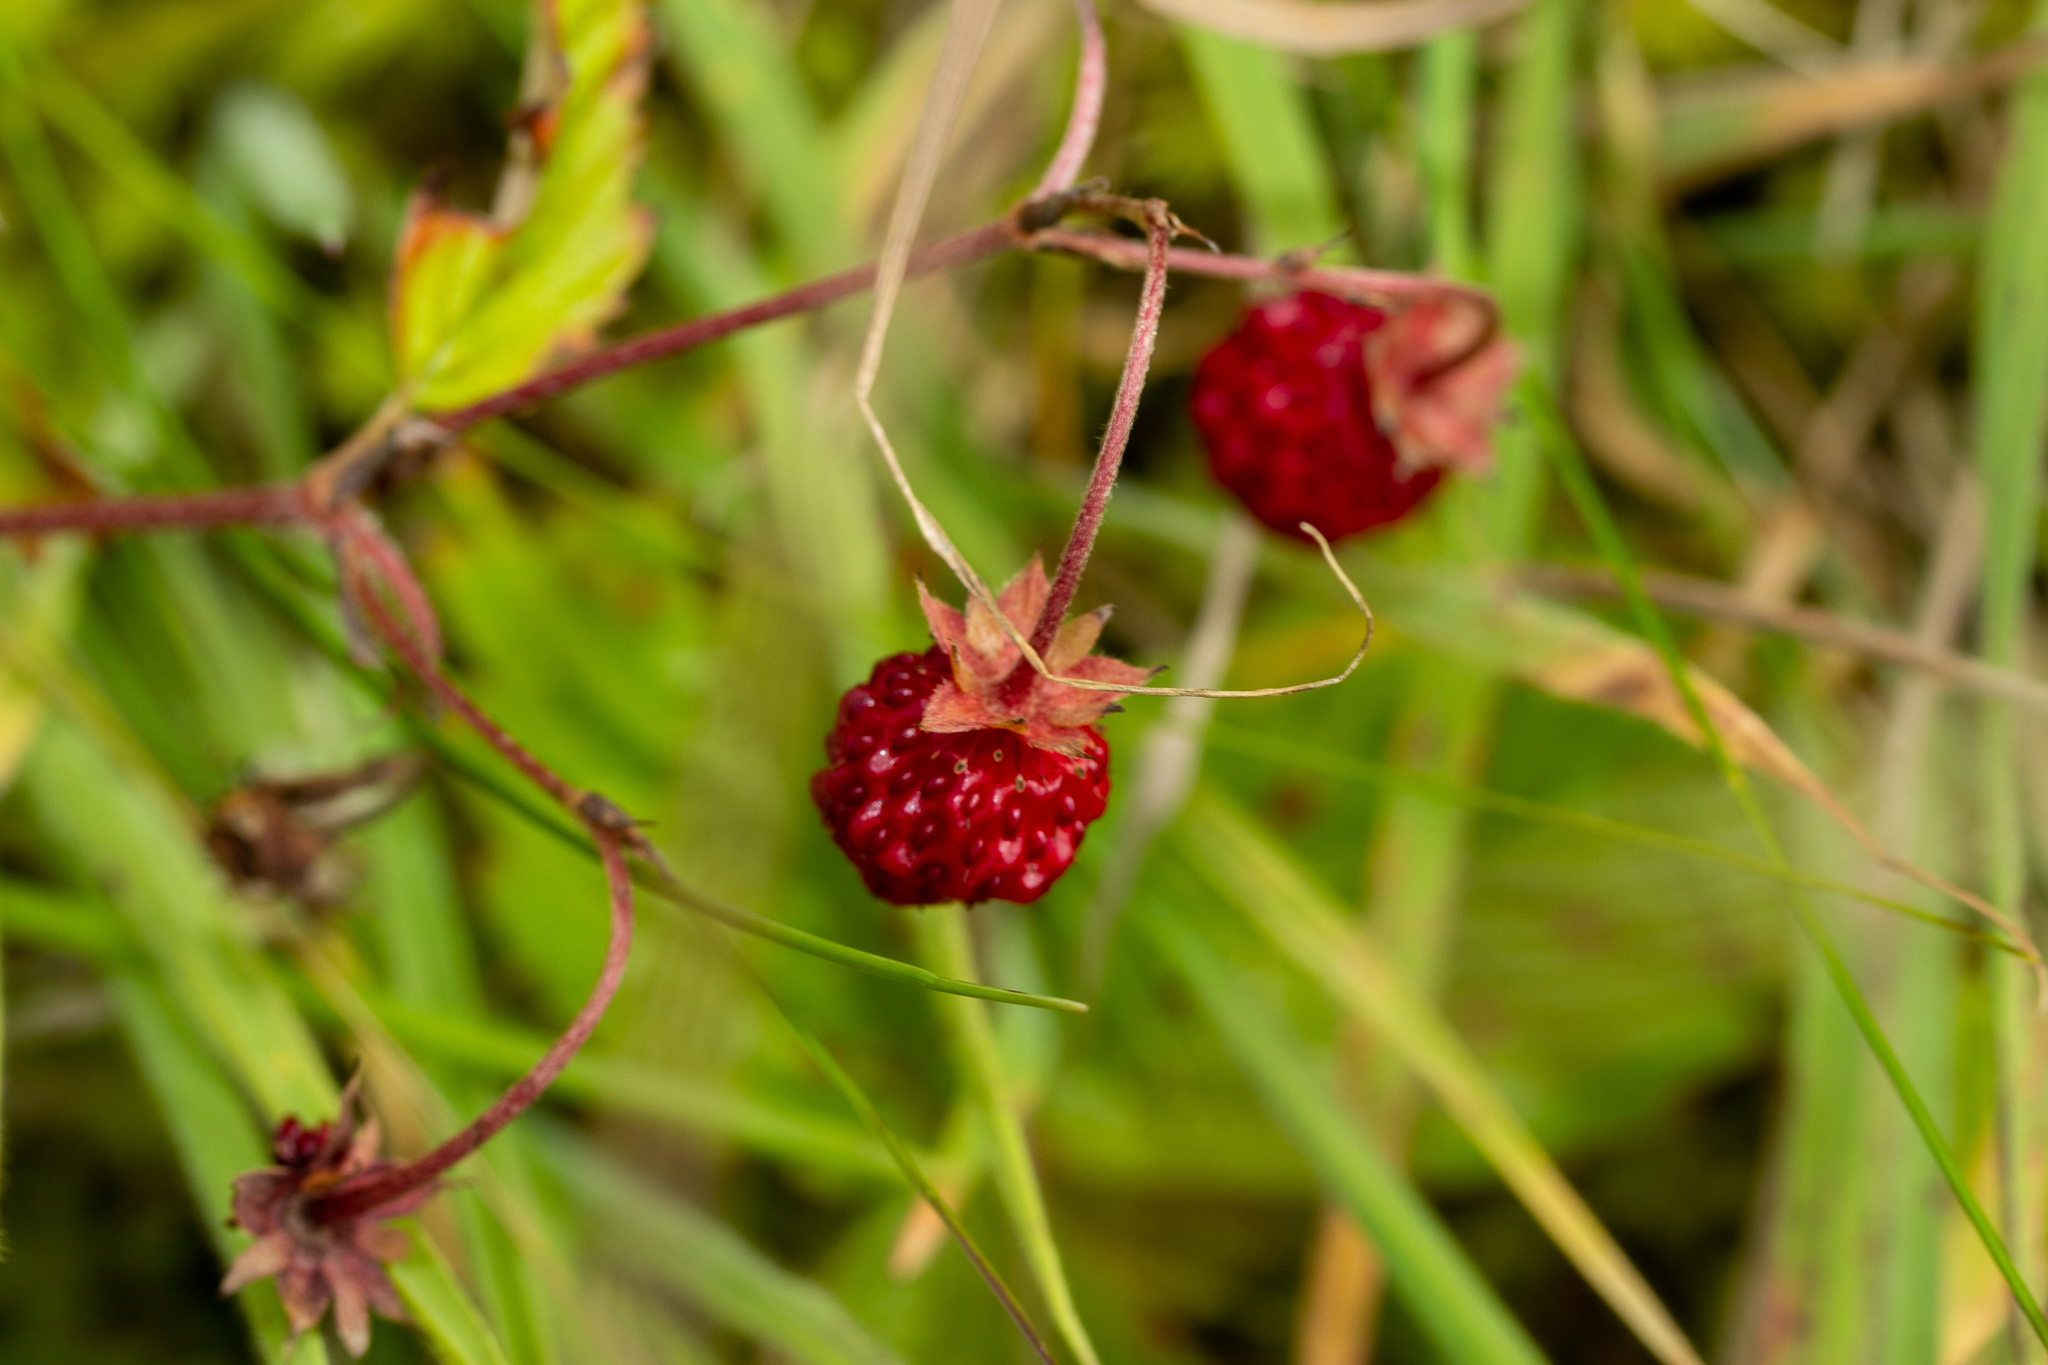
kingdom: Plantae
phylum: Tracheophyta
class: Magnoliopsida
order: Rosales
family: Rosaceae
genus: Fragaria
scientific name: Fragaria vesca
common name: Wild strawberry
